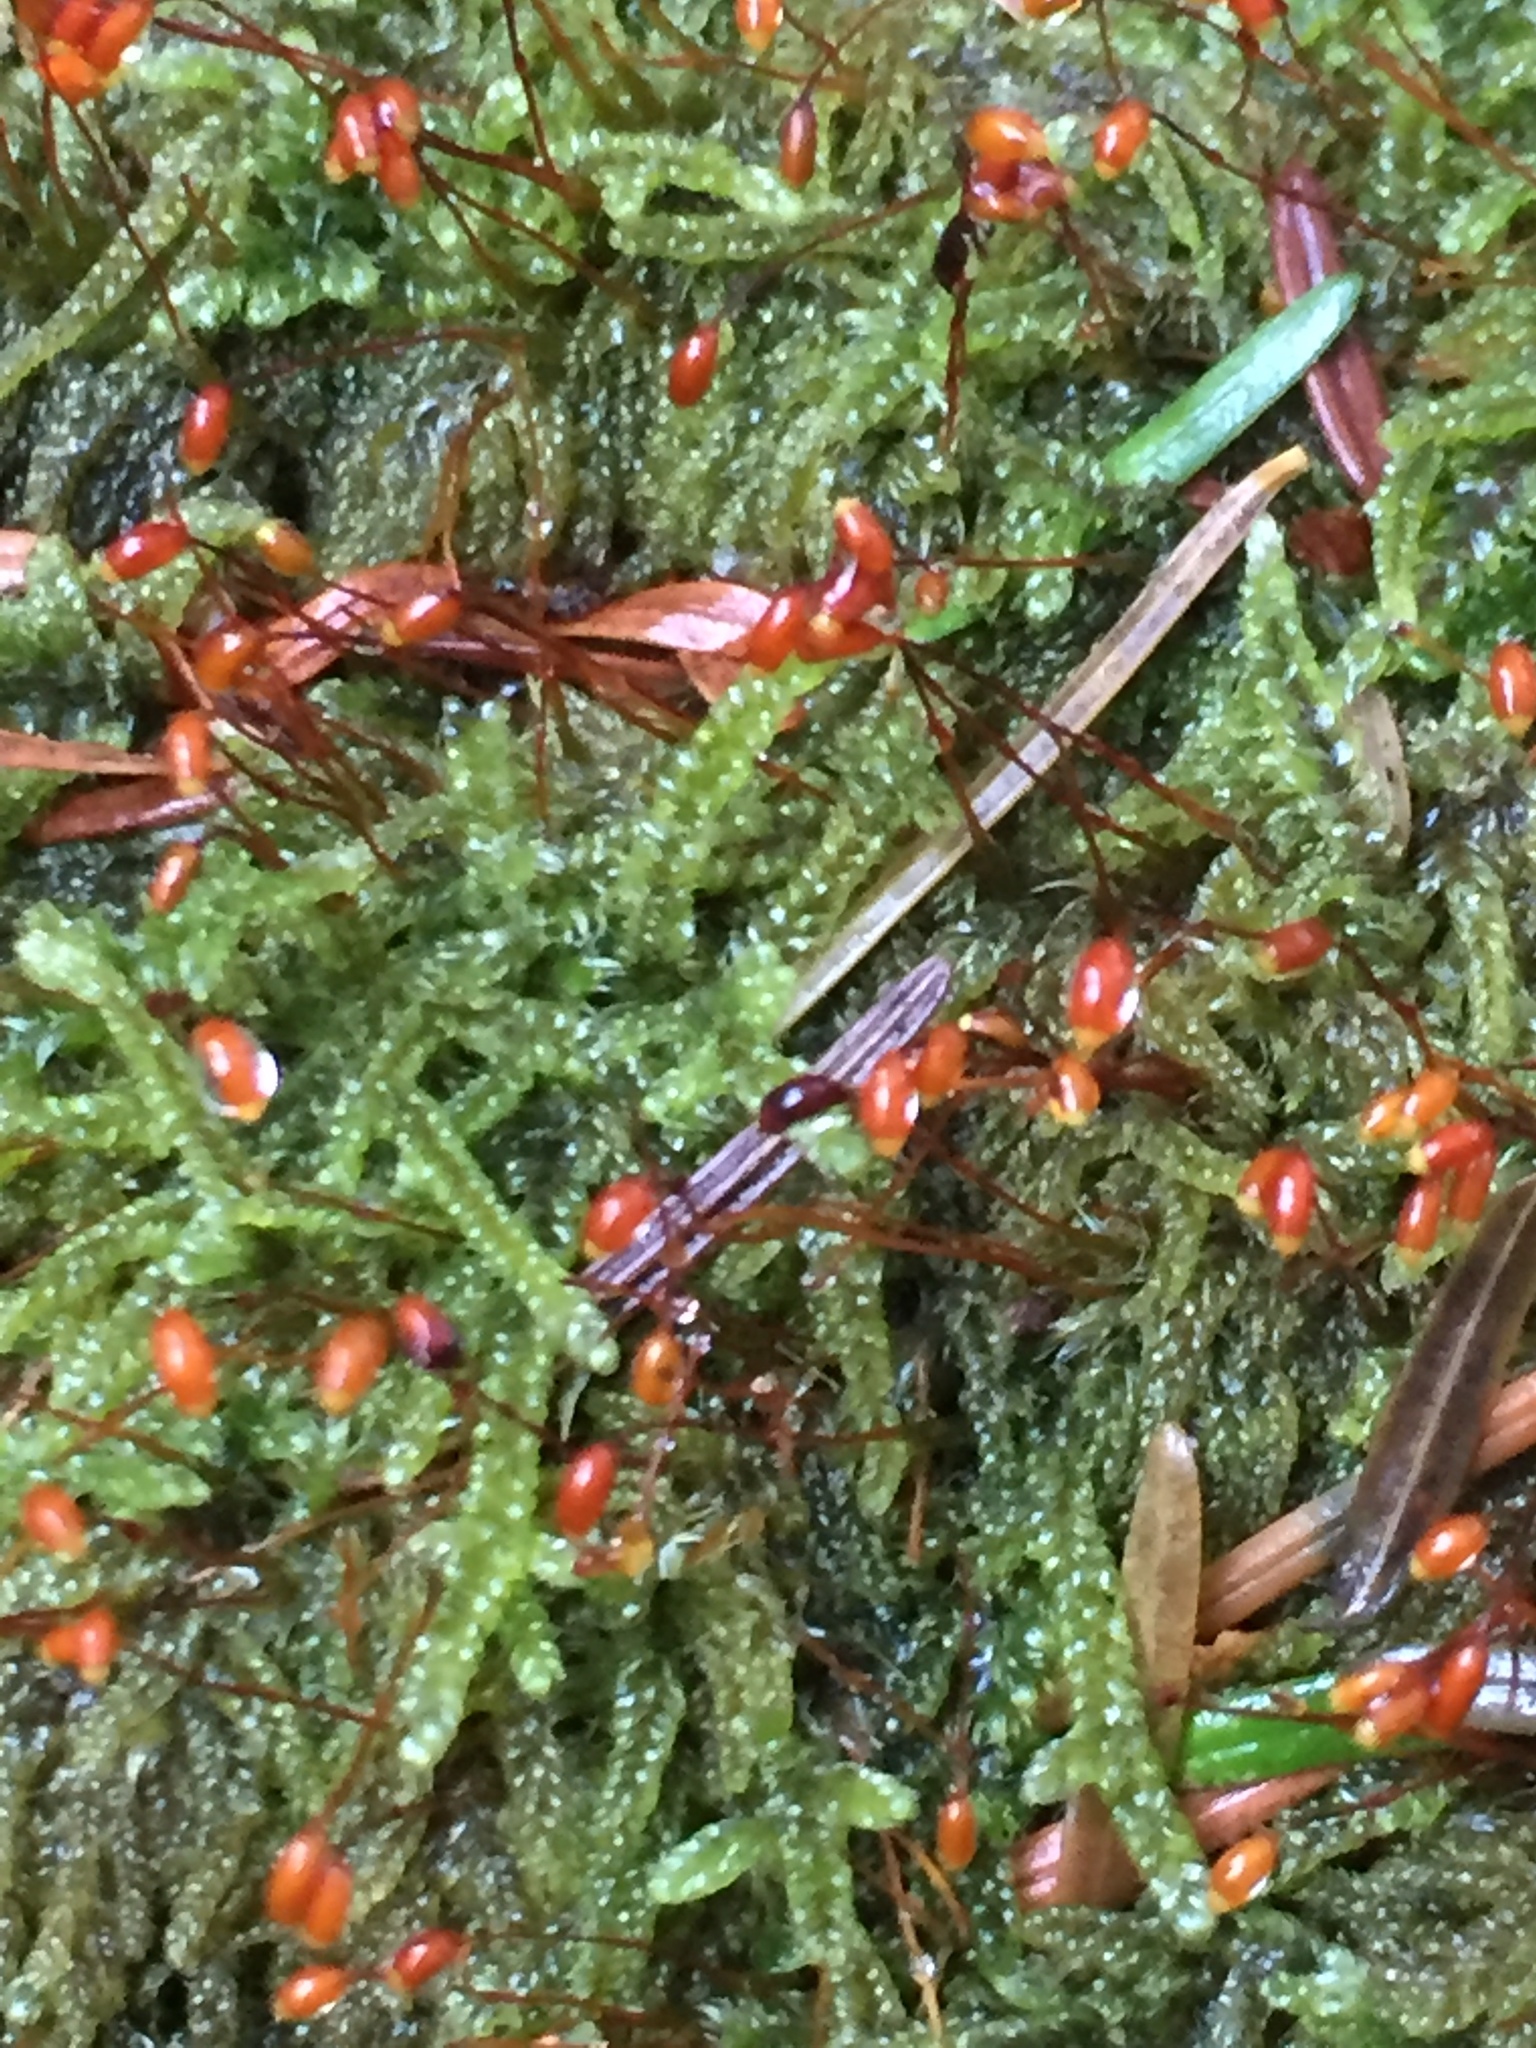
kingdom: Plantae
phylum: Bryophyta
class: Bryopsida
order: Hypnales
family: Pylaisiadelphaceae
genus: Trochophyllohypnum
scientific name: Trochophyllohypnum circinale
